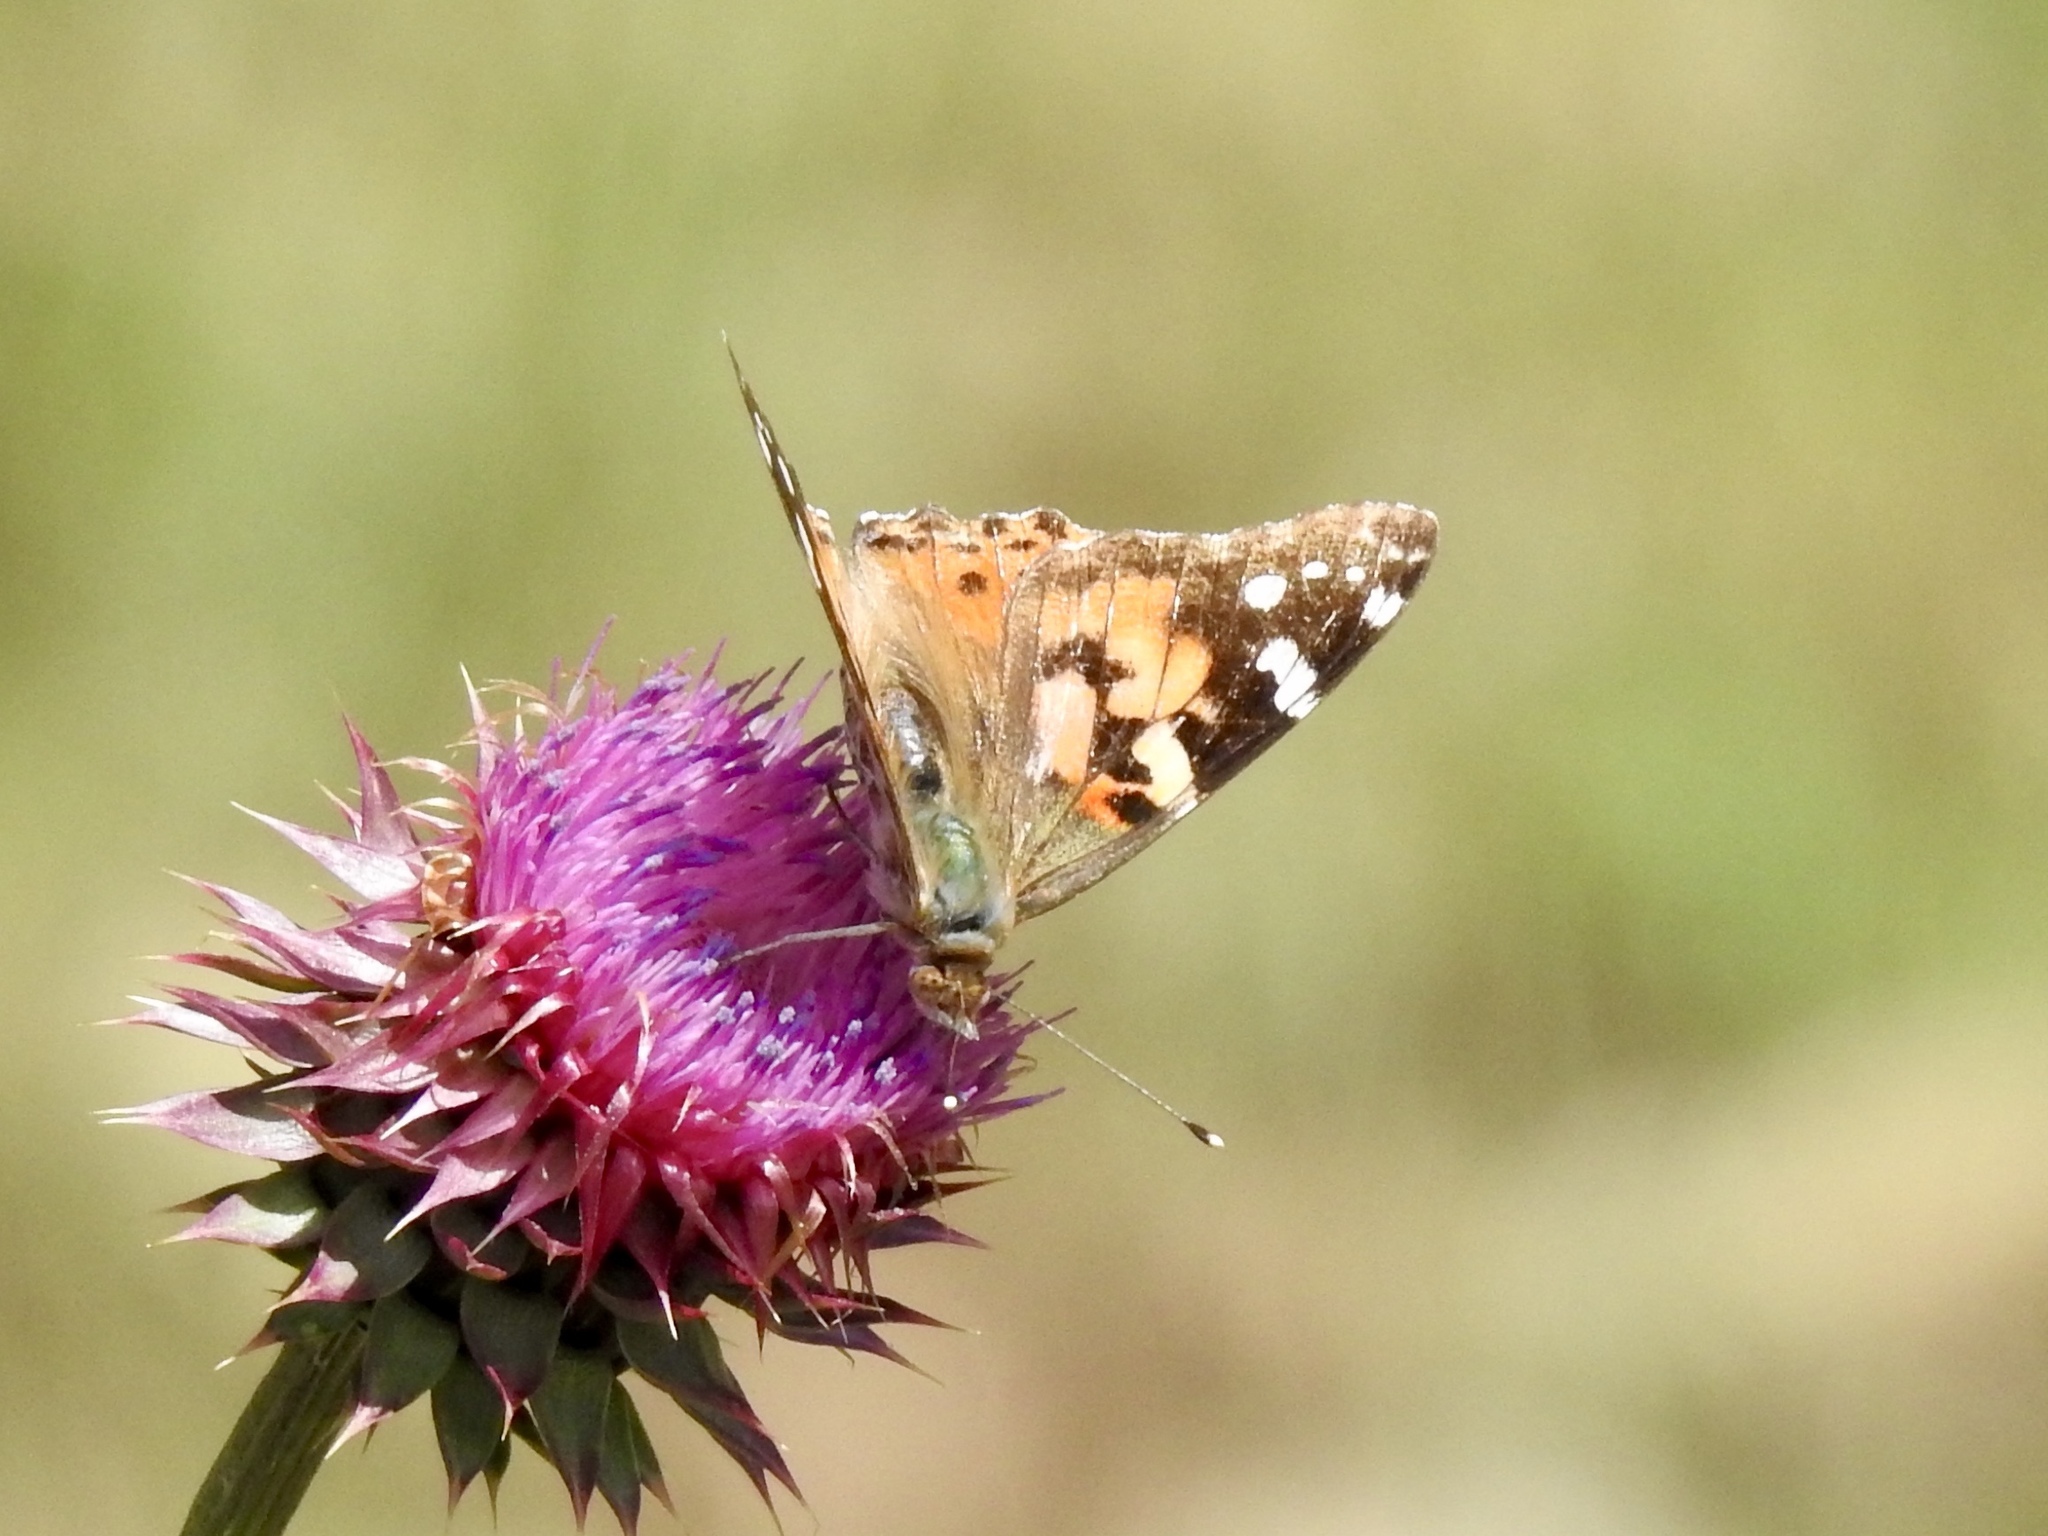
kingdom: Animalia
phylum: Arthropoda
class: Insecta
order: Lepidoptera
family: Nymphalidae
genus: Vanessa
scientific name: Vanessa cardui
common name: Painted lady
